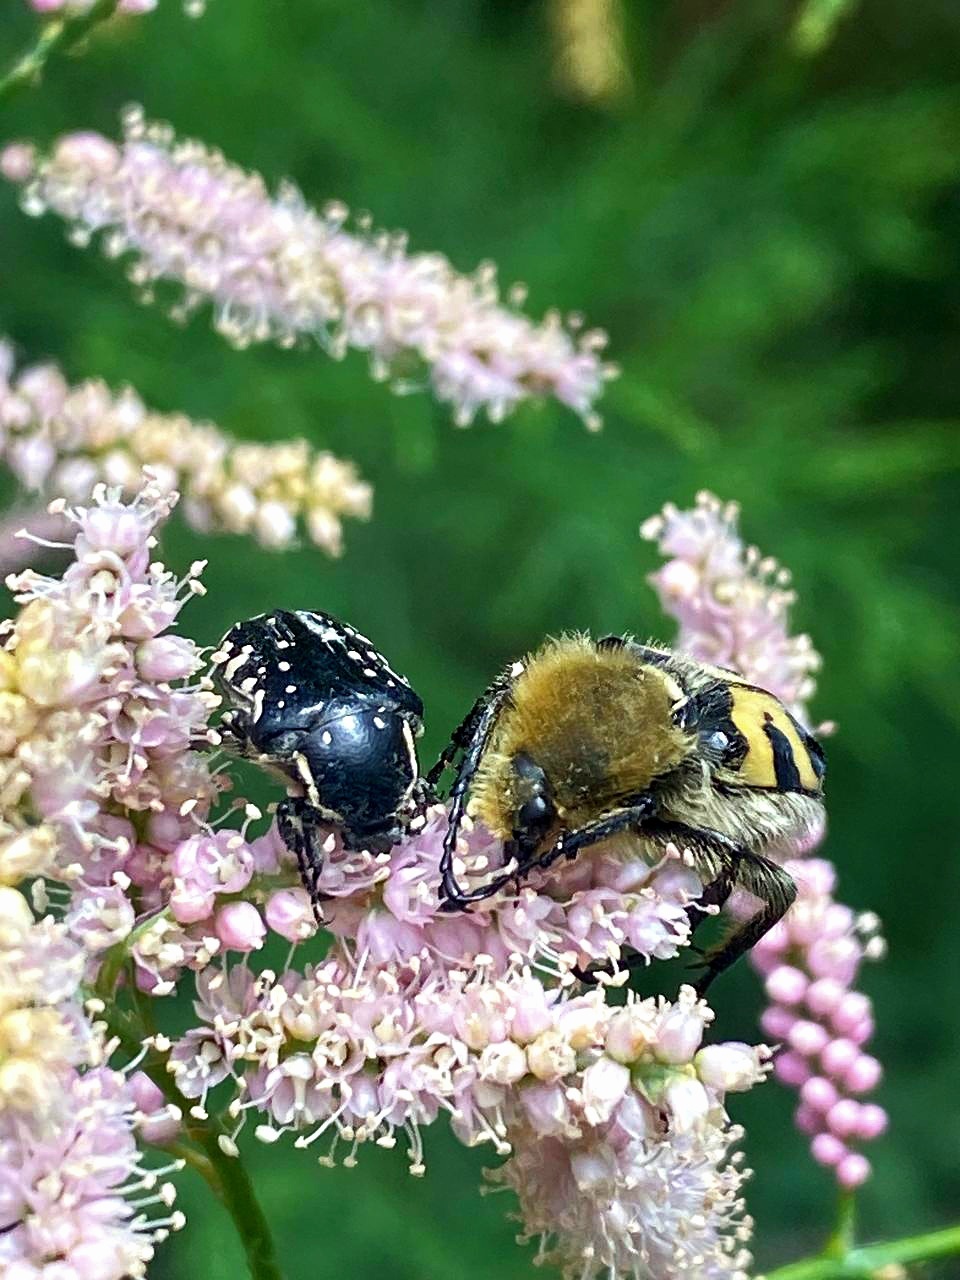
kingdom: Animalia
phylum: Arthropoda
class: Insecta
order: Coleoptera
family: Scarabaeidae
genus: Oxythyrea
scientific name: Oxythyrea cinctella
